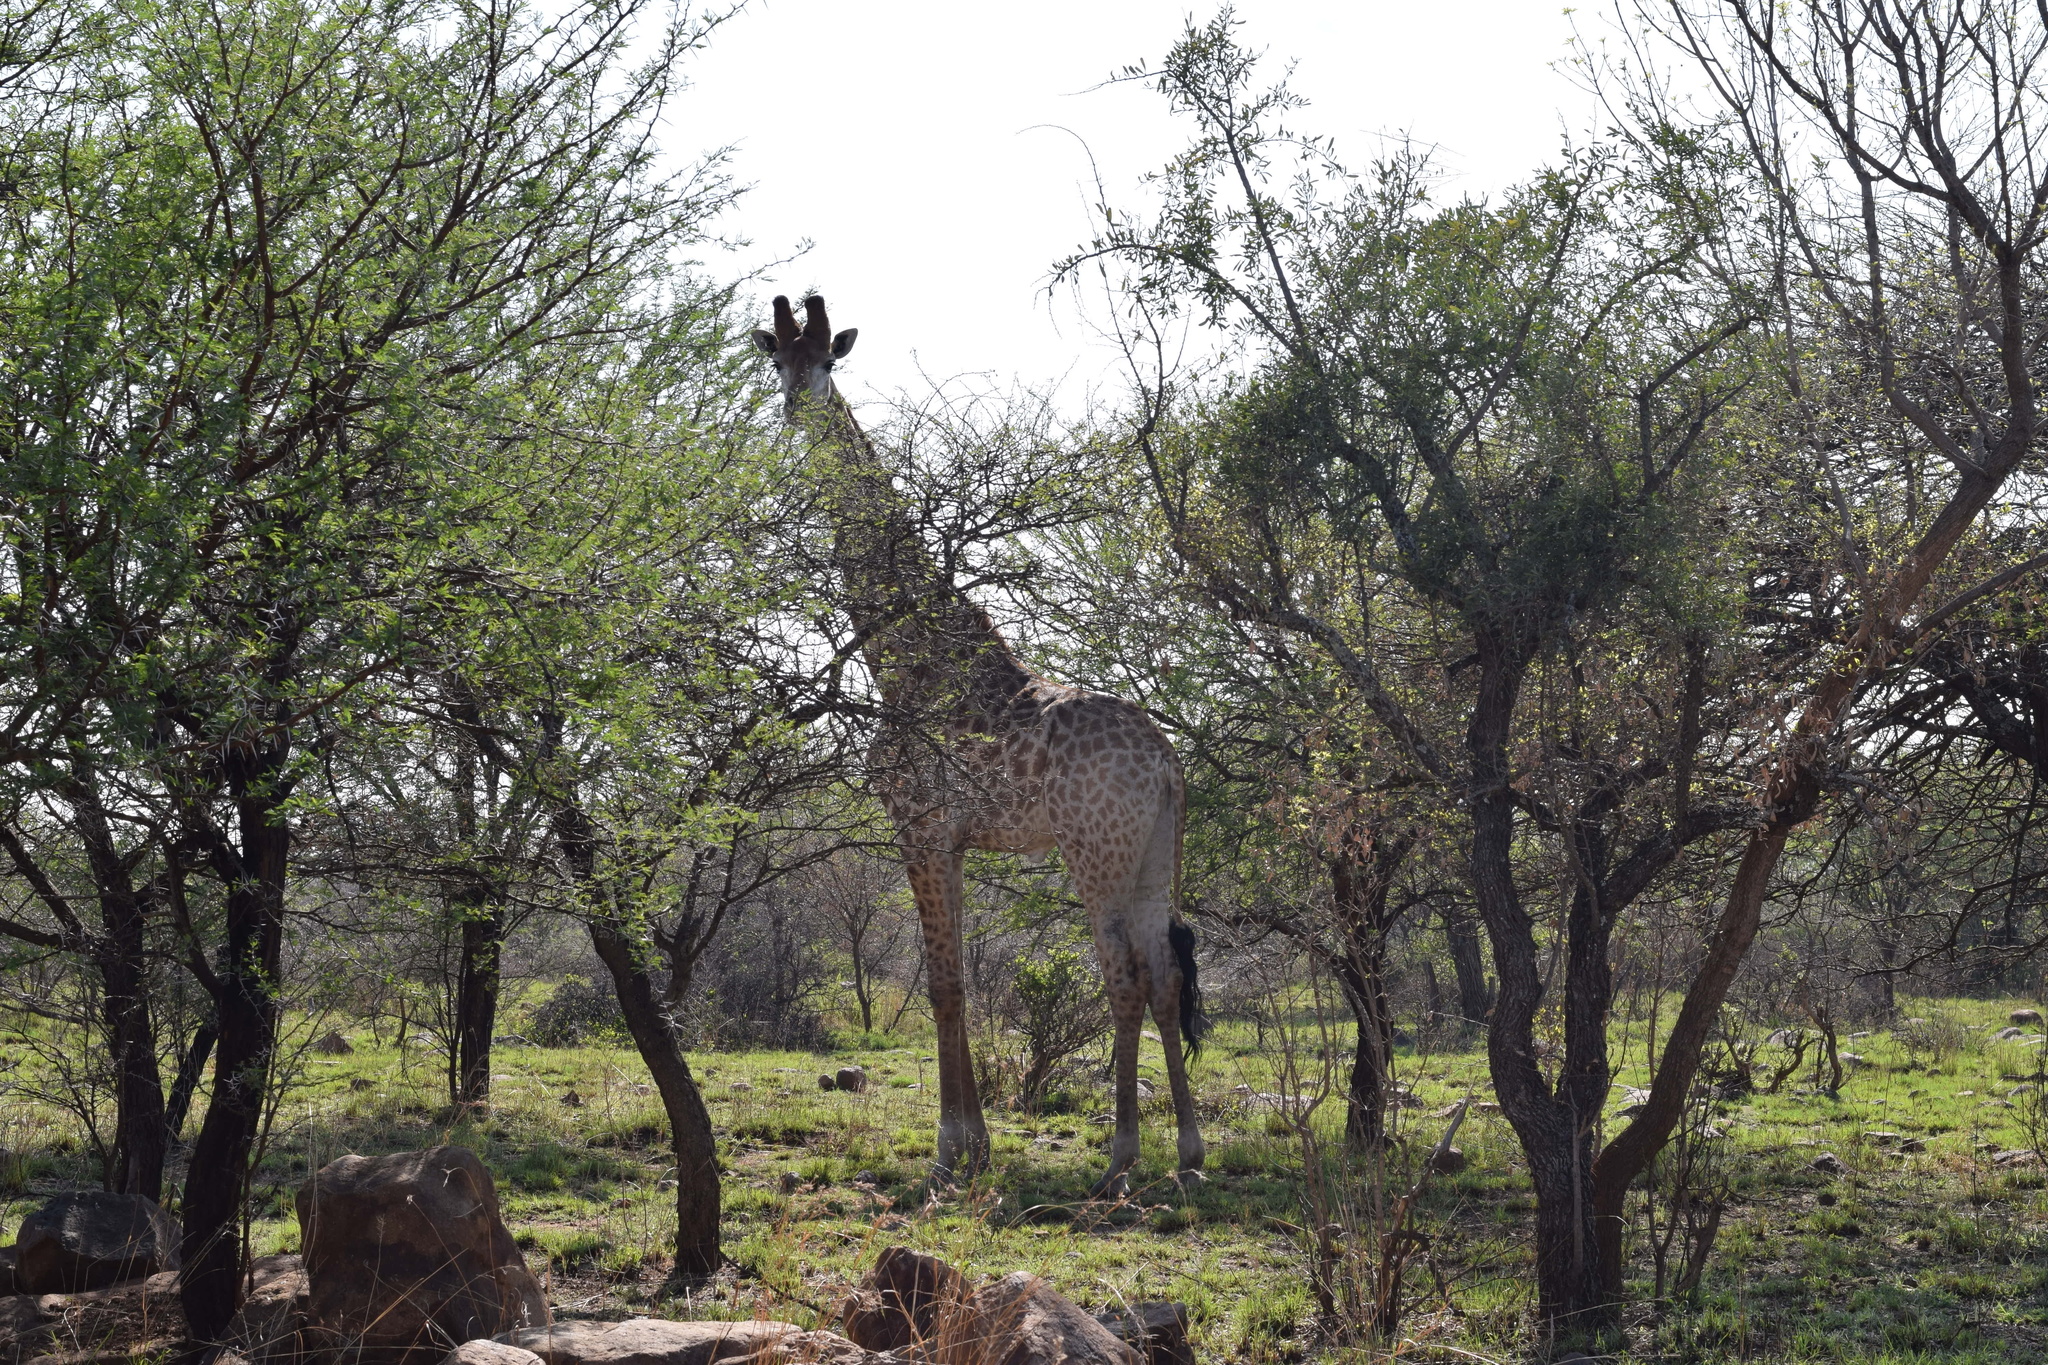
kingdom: Animalia
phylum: Chordata
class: Mammalia
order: Artiodactyla
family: Giraffidae
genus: Giraffa
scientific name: Giraffa giraffa
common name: Southern giraffe
